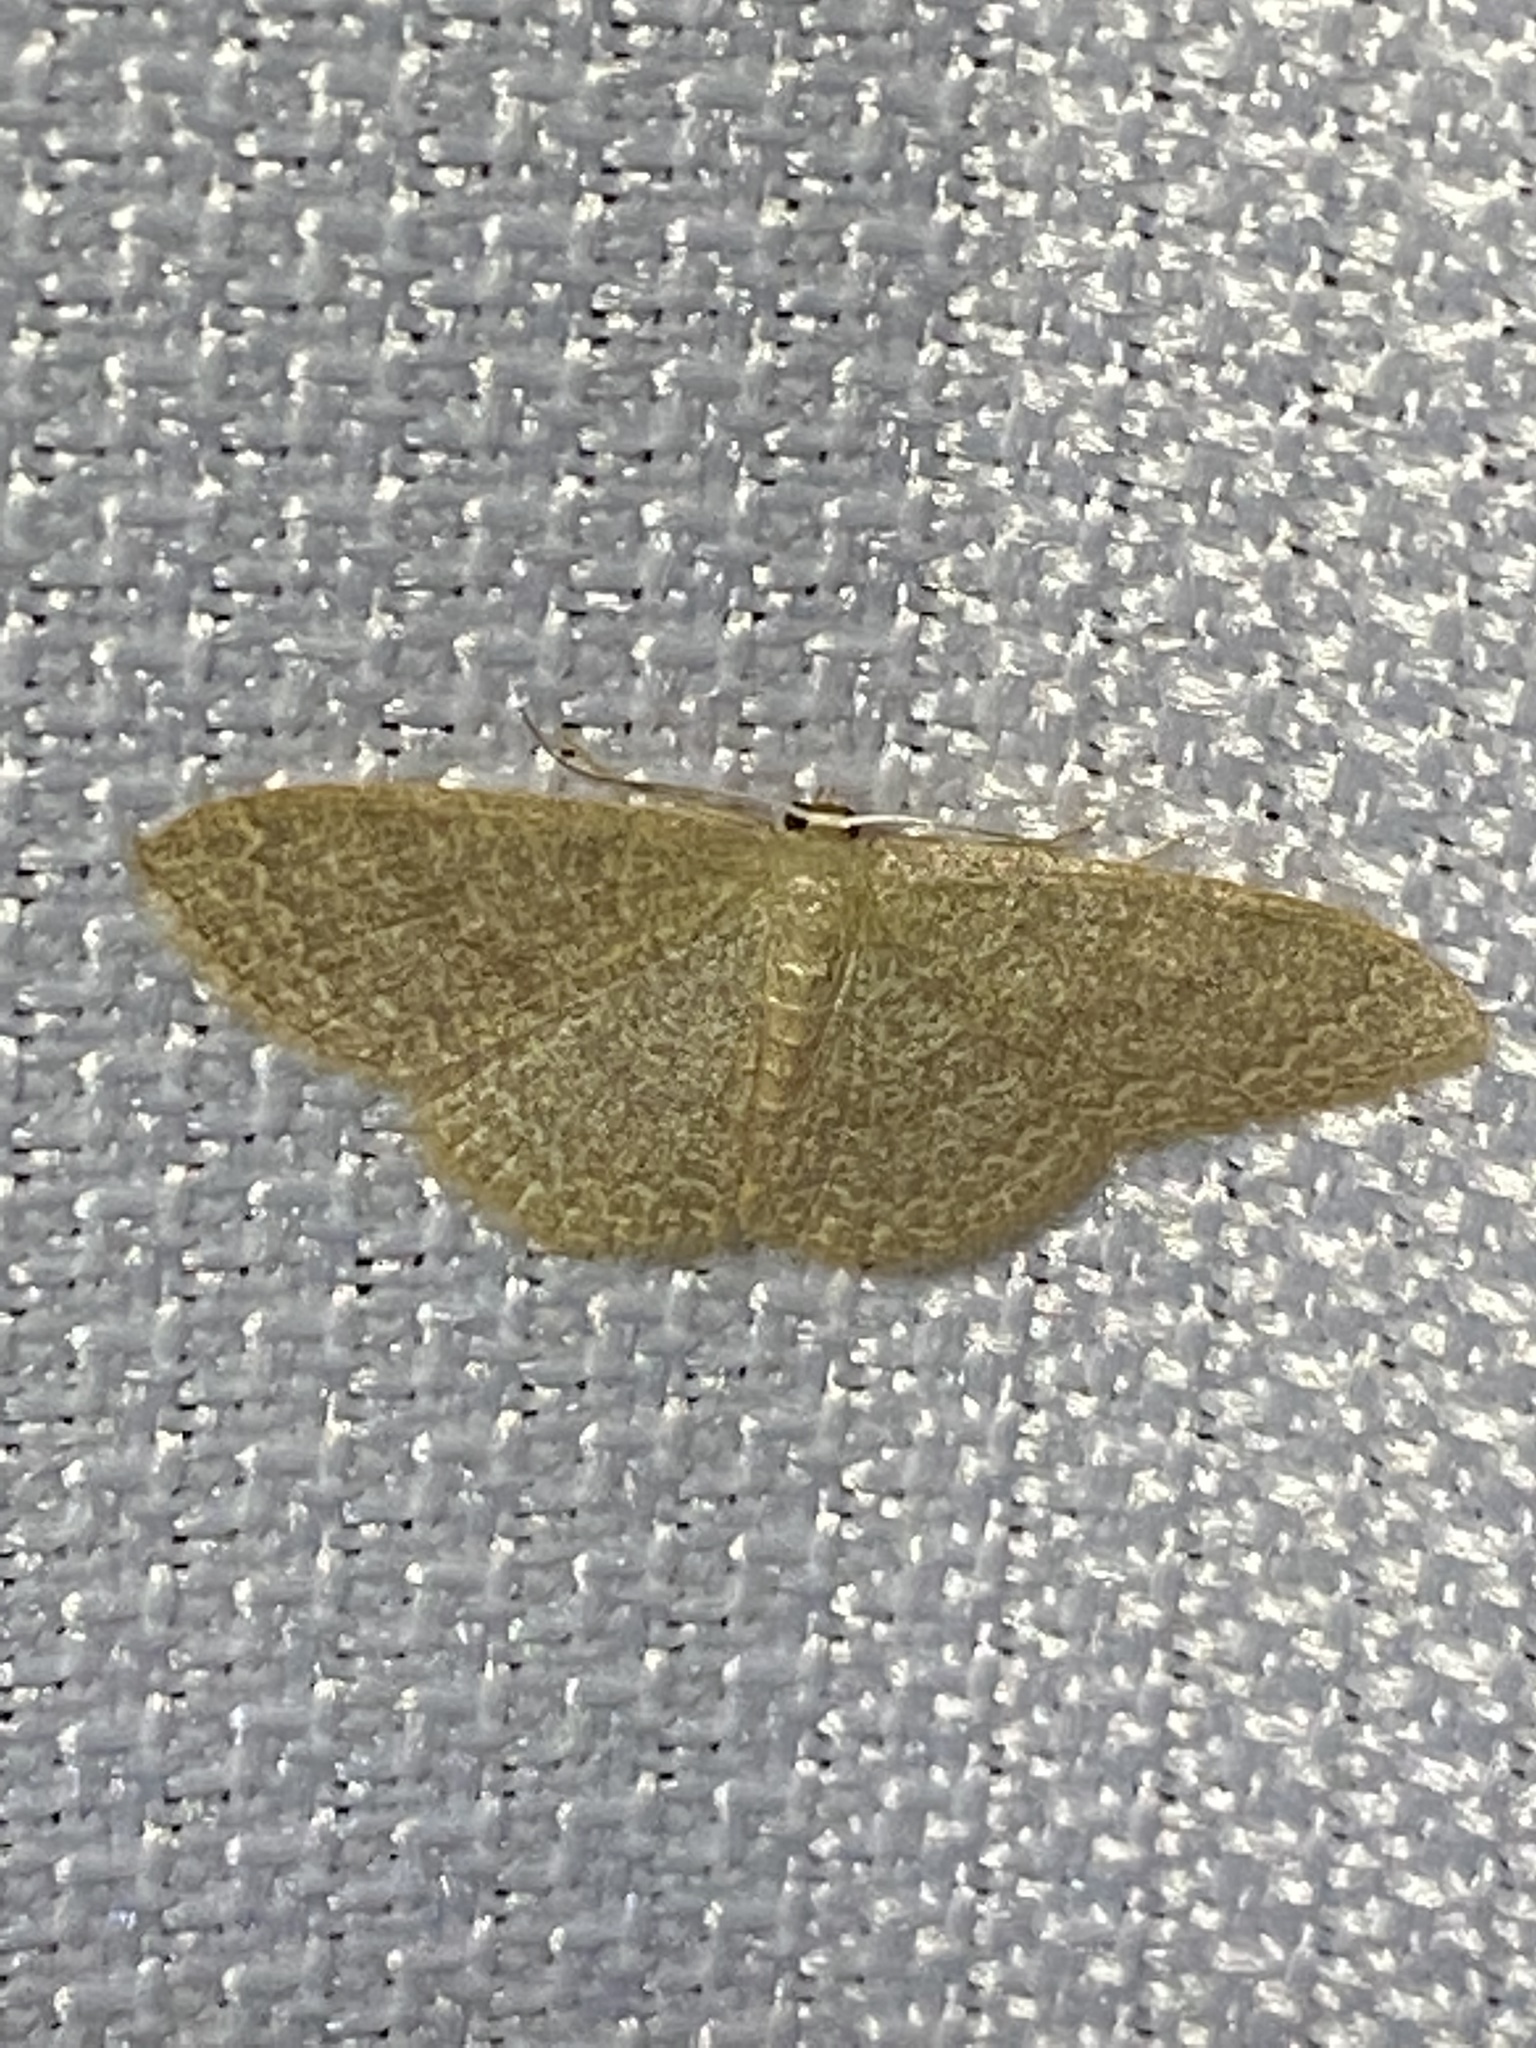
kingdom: Animalia
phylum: Arthropoda
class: Insecta
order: Lepidoptera
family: Geometridae
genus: Pleuroprucha
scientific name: Pleuroprucha insulsaria
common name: Common tan wave
